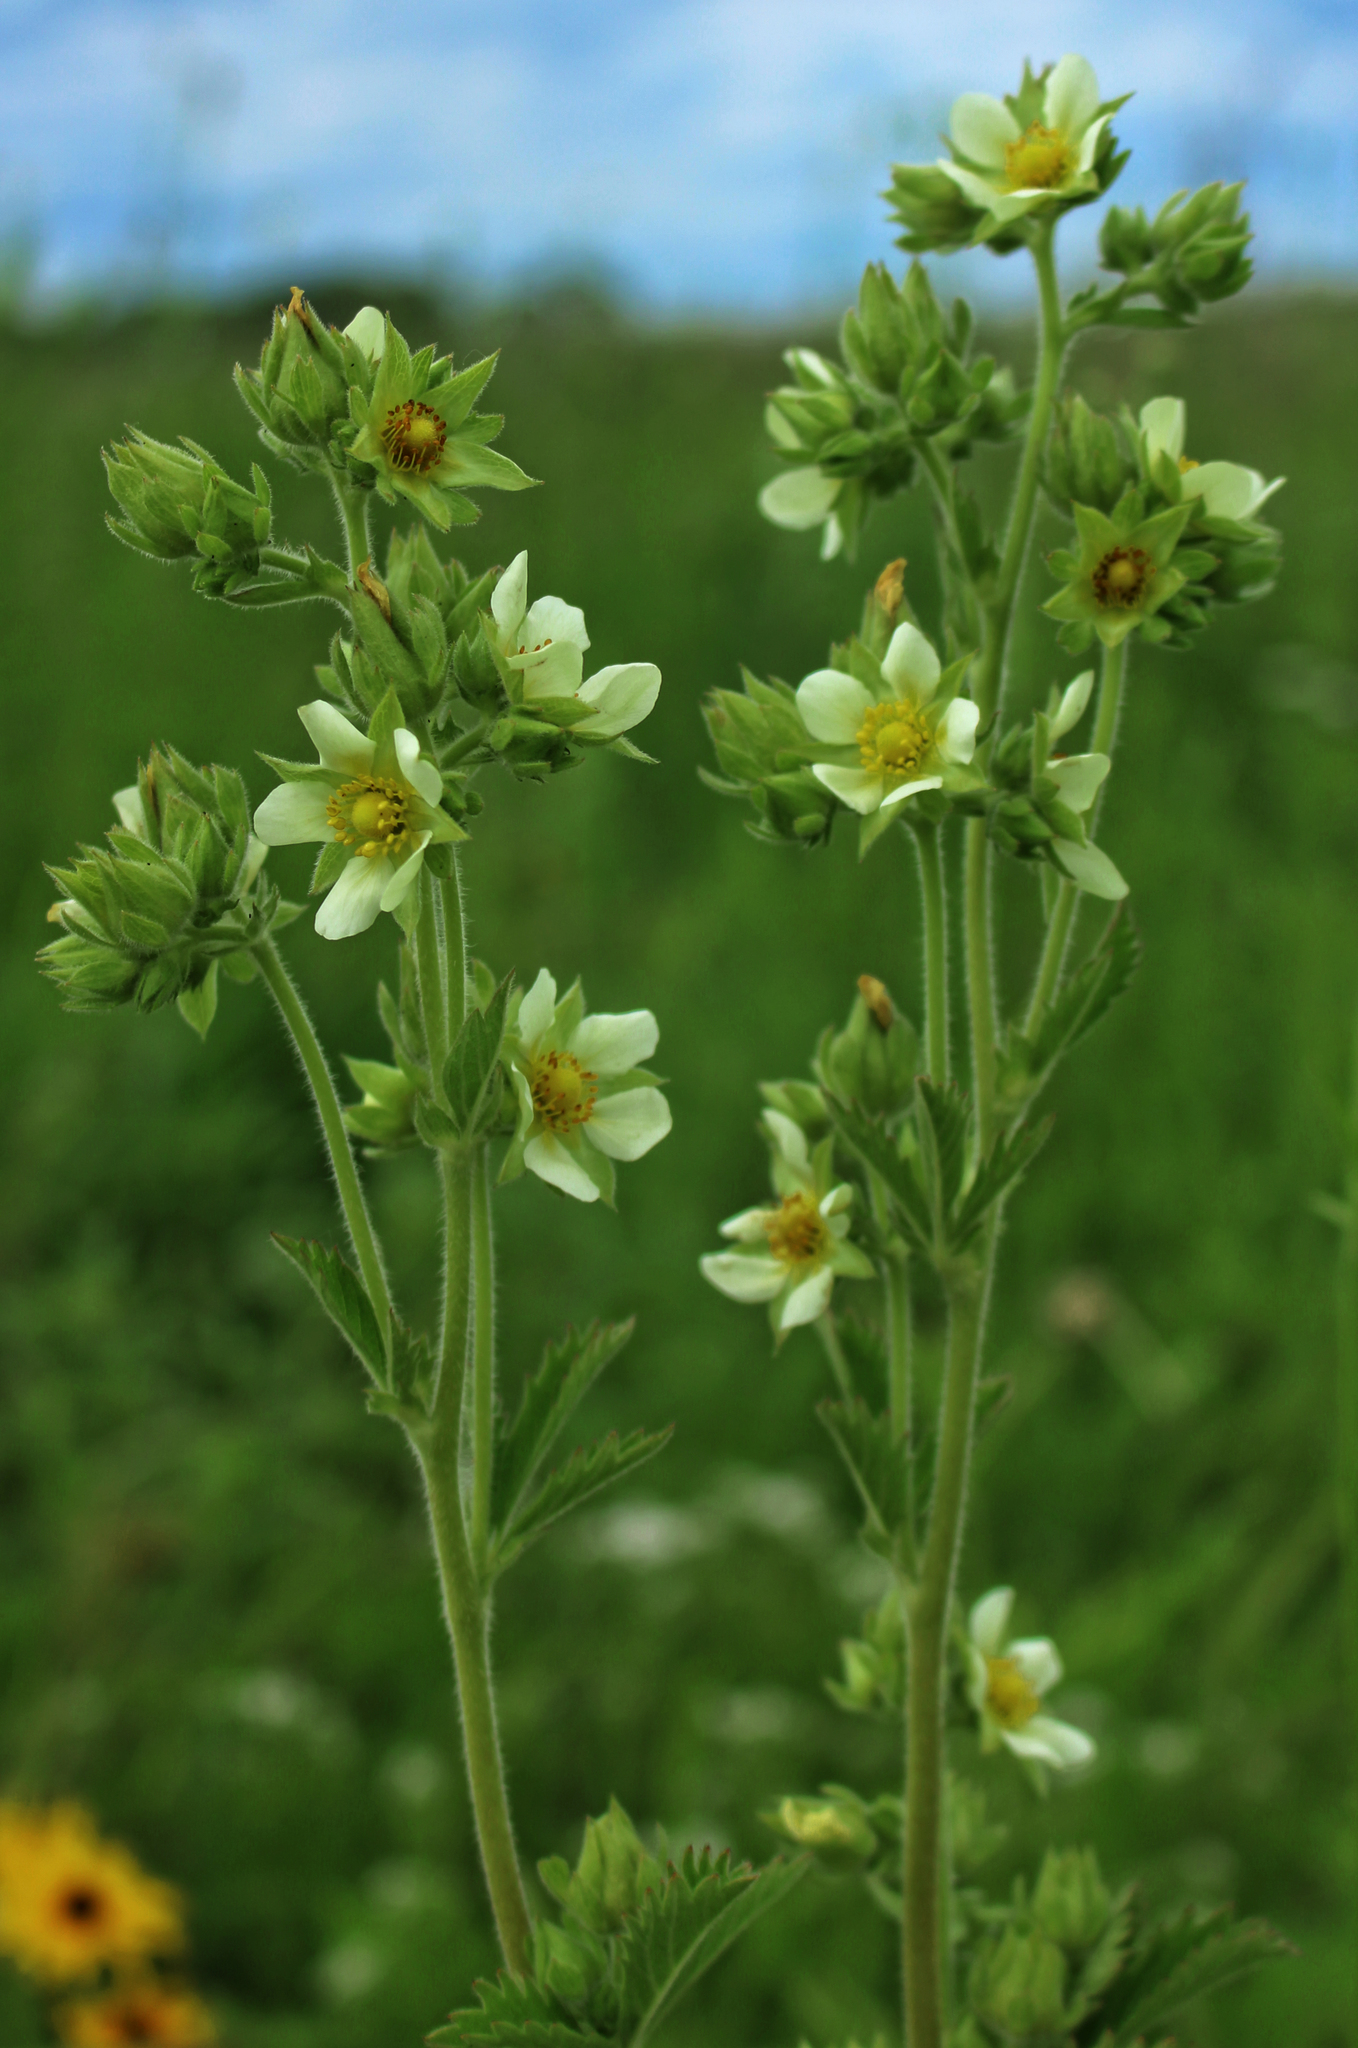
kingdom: Plantae
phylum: Tracheophyta
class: Magnoliopsida
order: Rosales
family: Rosaceae
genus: Drymocallis
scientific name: Drymocallis arguta
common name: Tall cinquefoil
